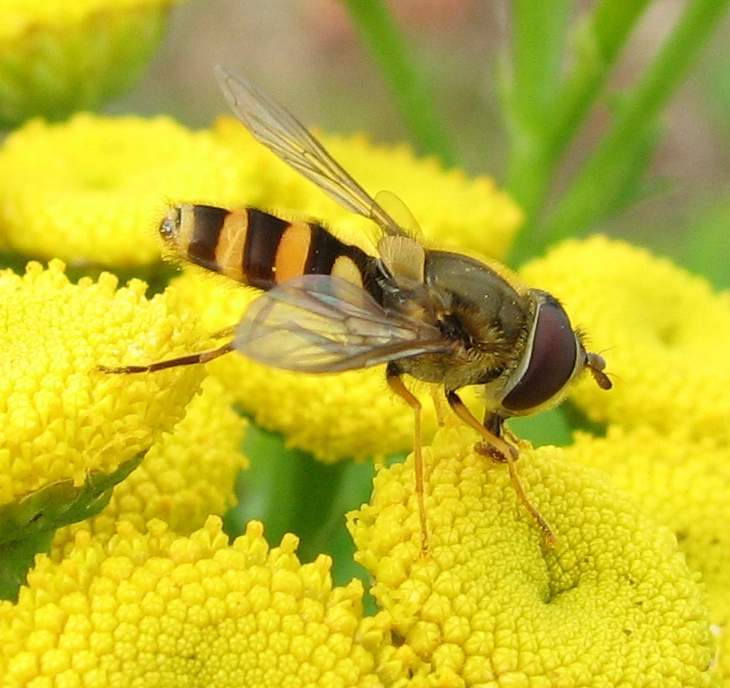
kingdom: Animalia
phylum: Arthropoda
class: Insecta
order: Diptera
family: Syrphidae
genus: Syrphus
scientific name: Syrphus
